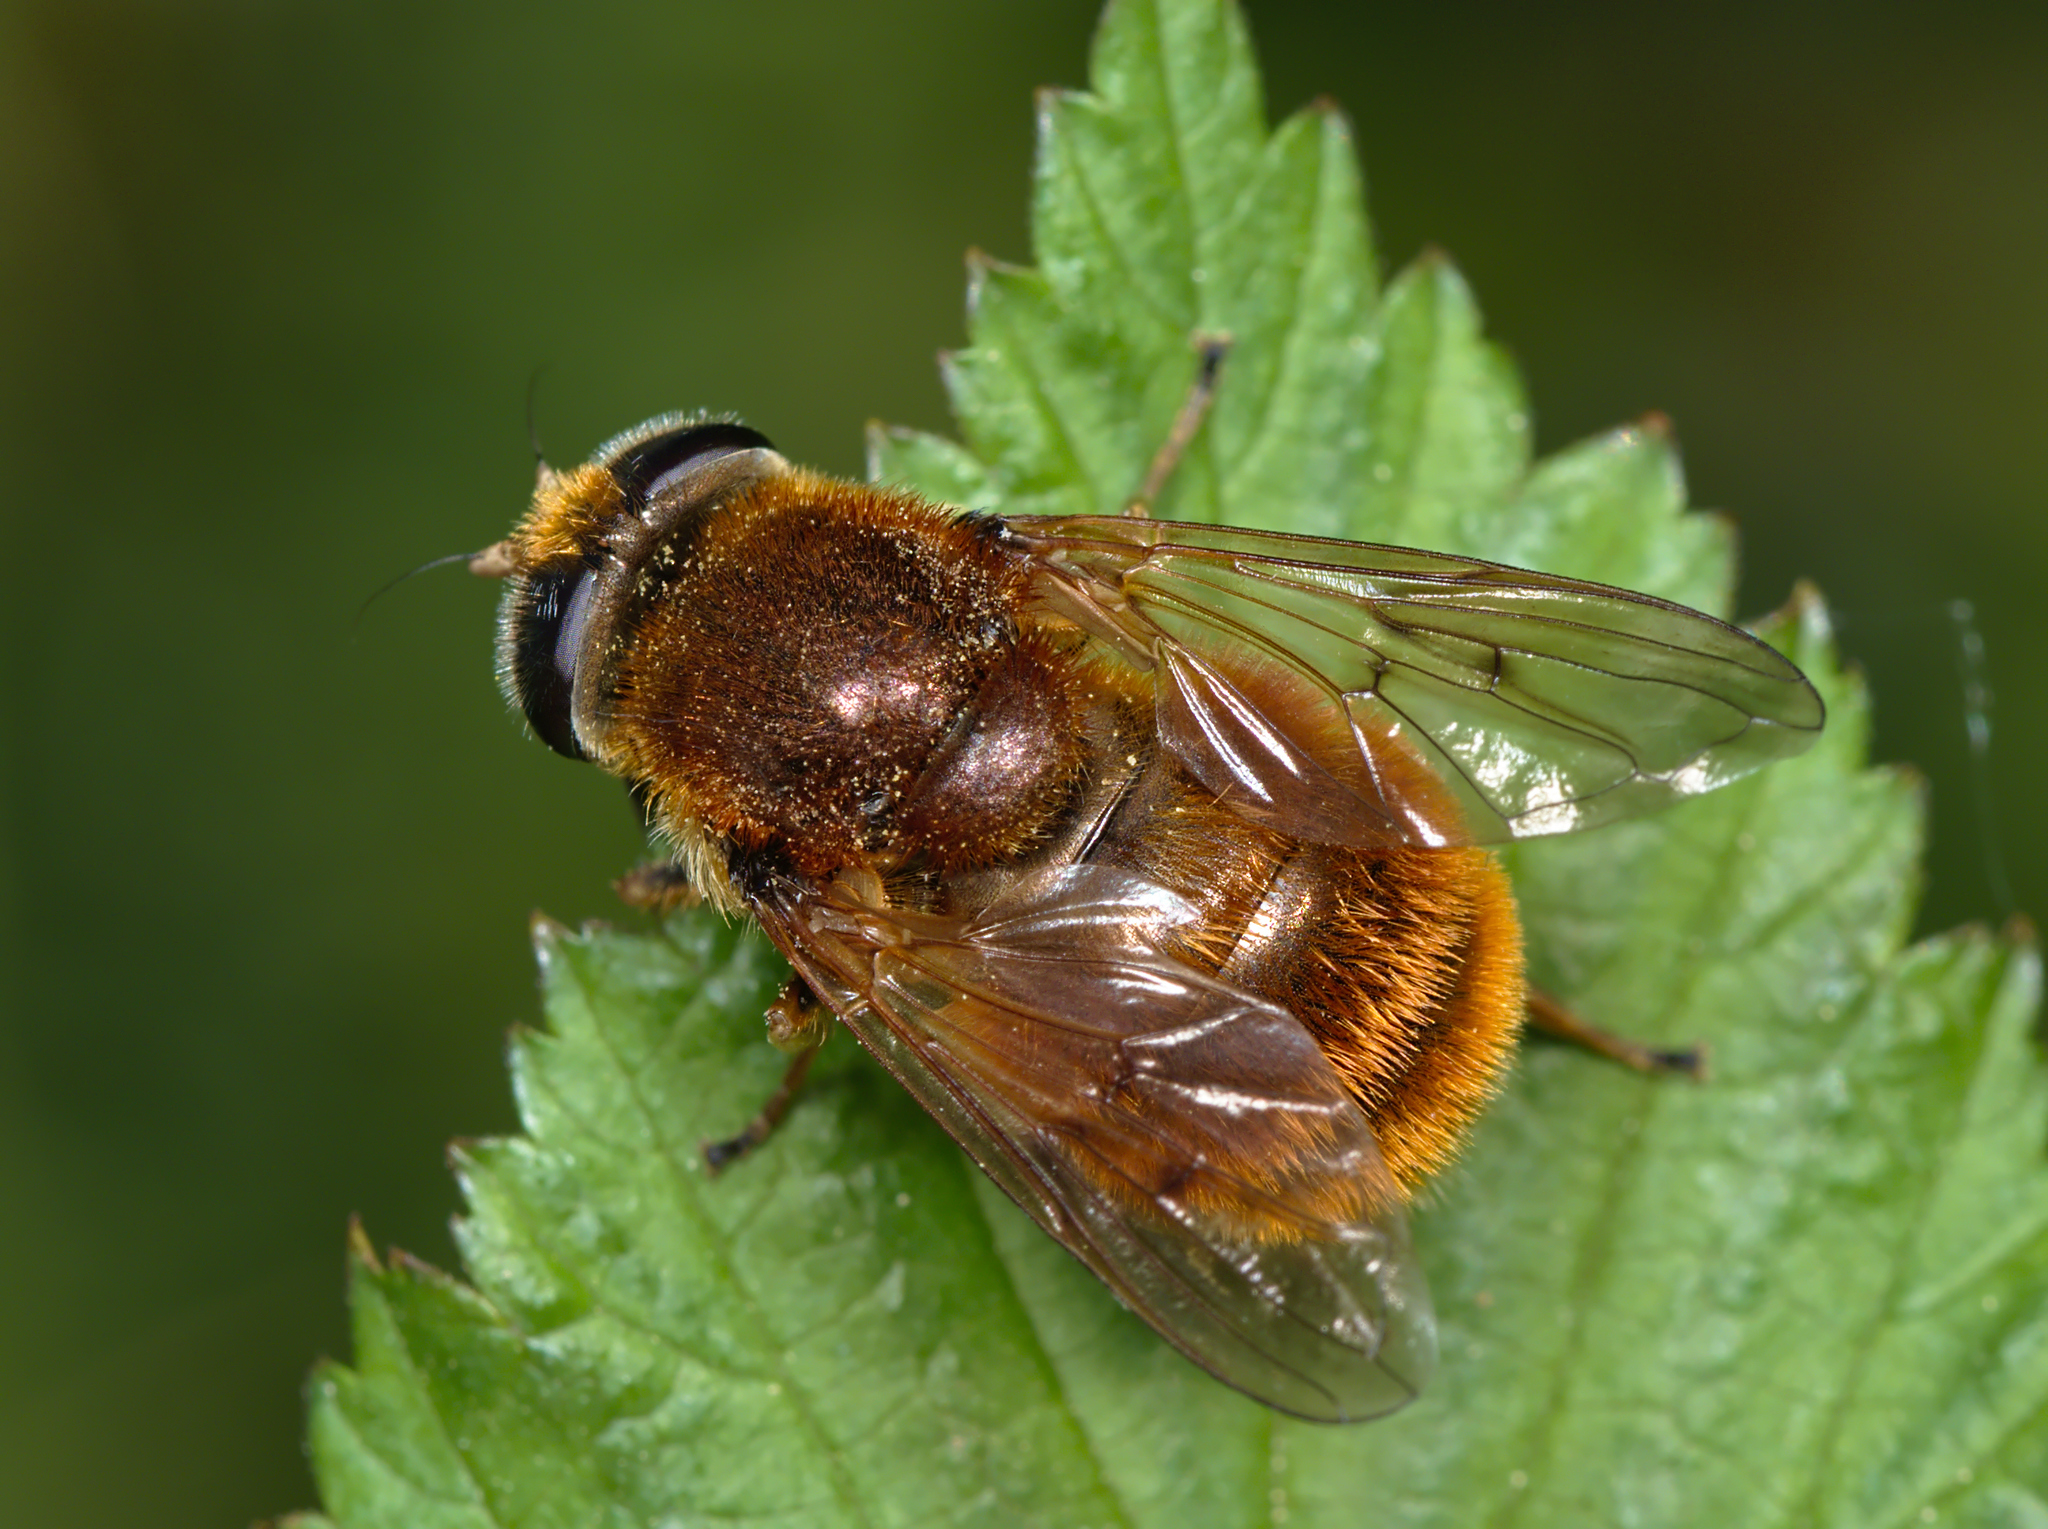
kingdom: Animalia
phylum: Arthropoda
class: Insecta
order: Diptera
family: Syrphidae
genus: Cheilosia
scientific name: Cheilosia chrysocoma
